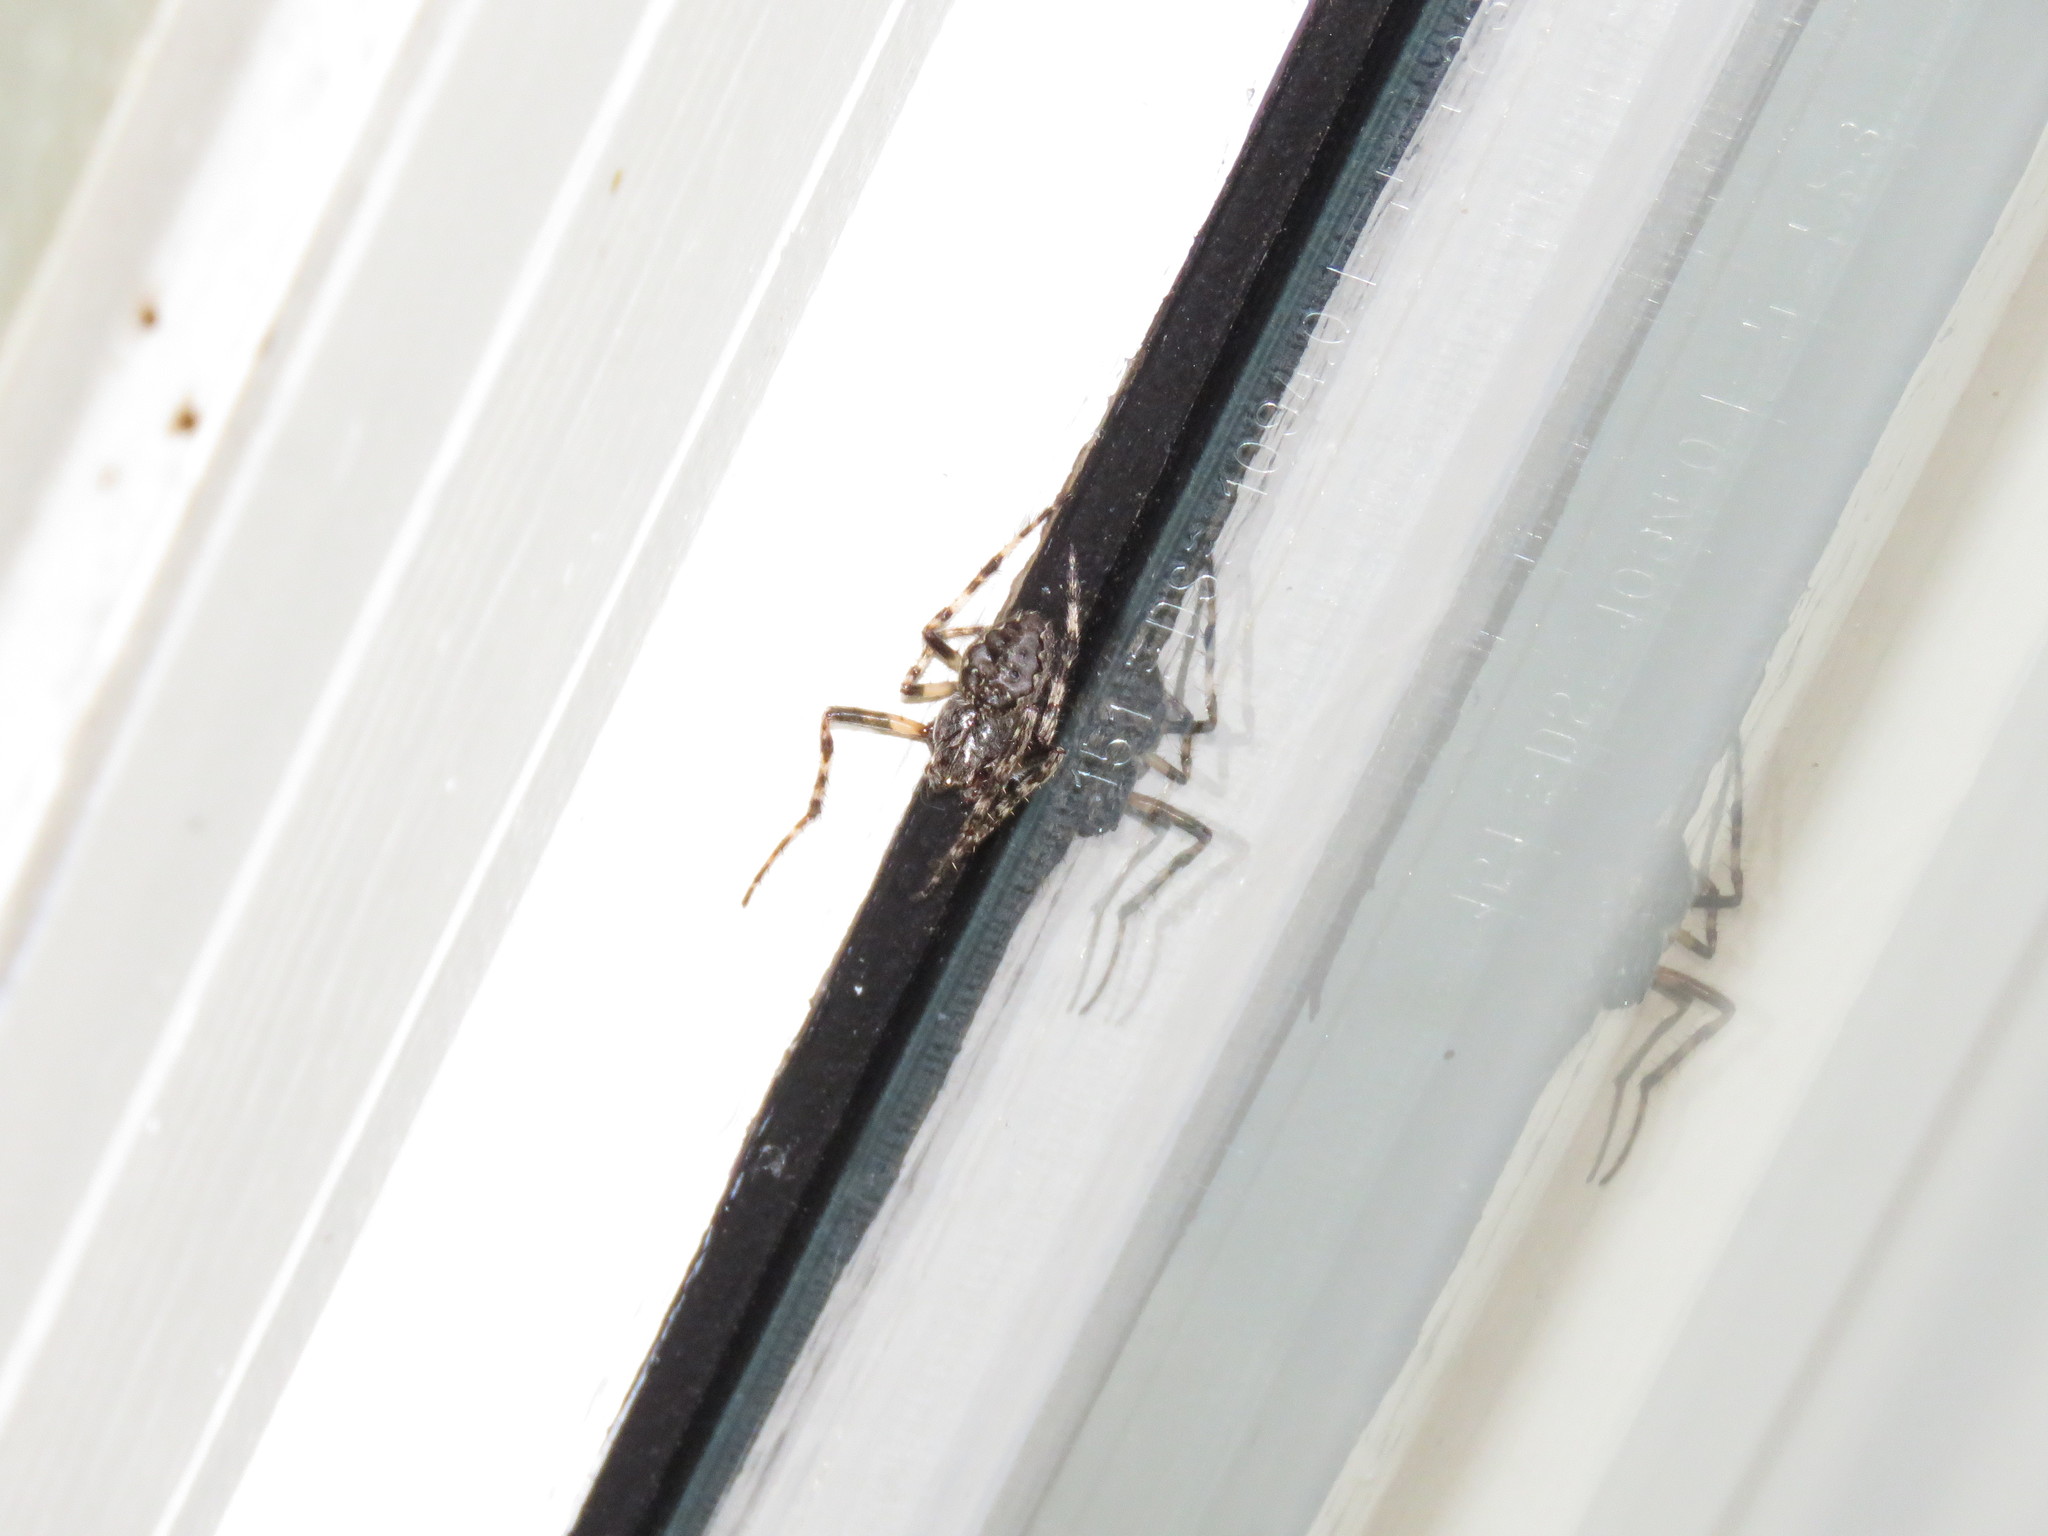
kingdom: Animalia
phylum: Arthropoda
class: Arachnida
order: Araneae
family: Araneidae
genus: Nuctenea
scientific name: Nuctenea umbratica
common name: Toad spider
